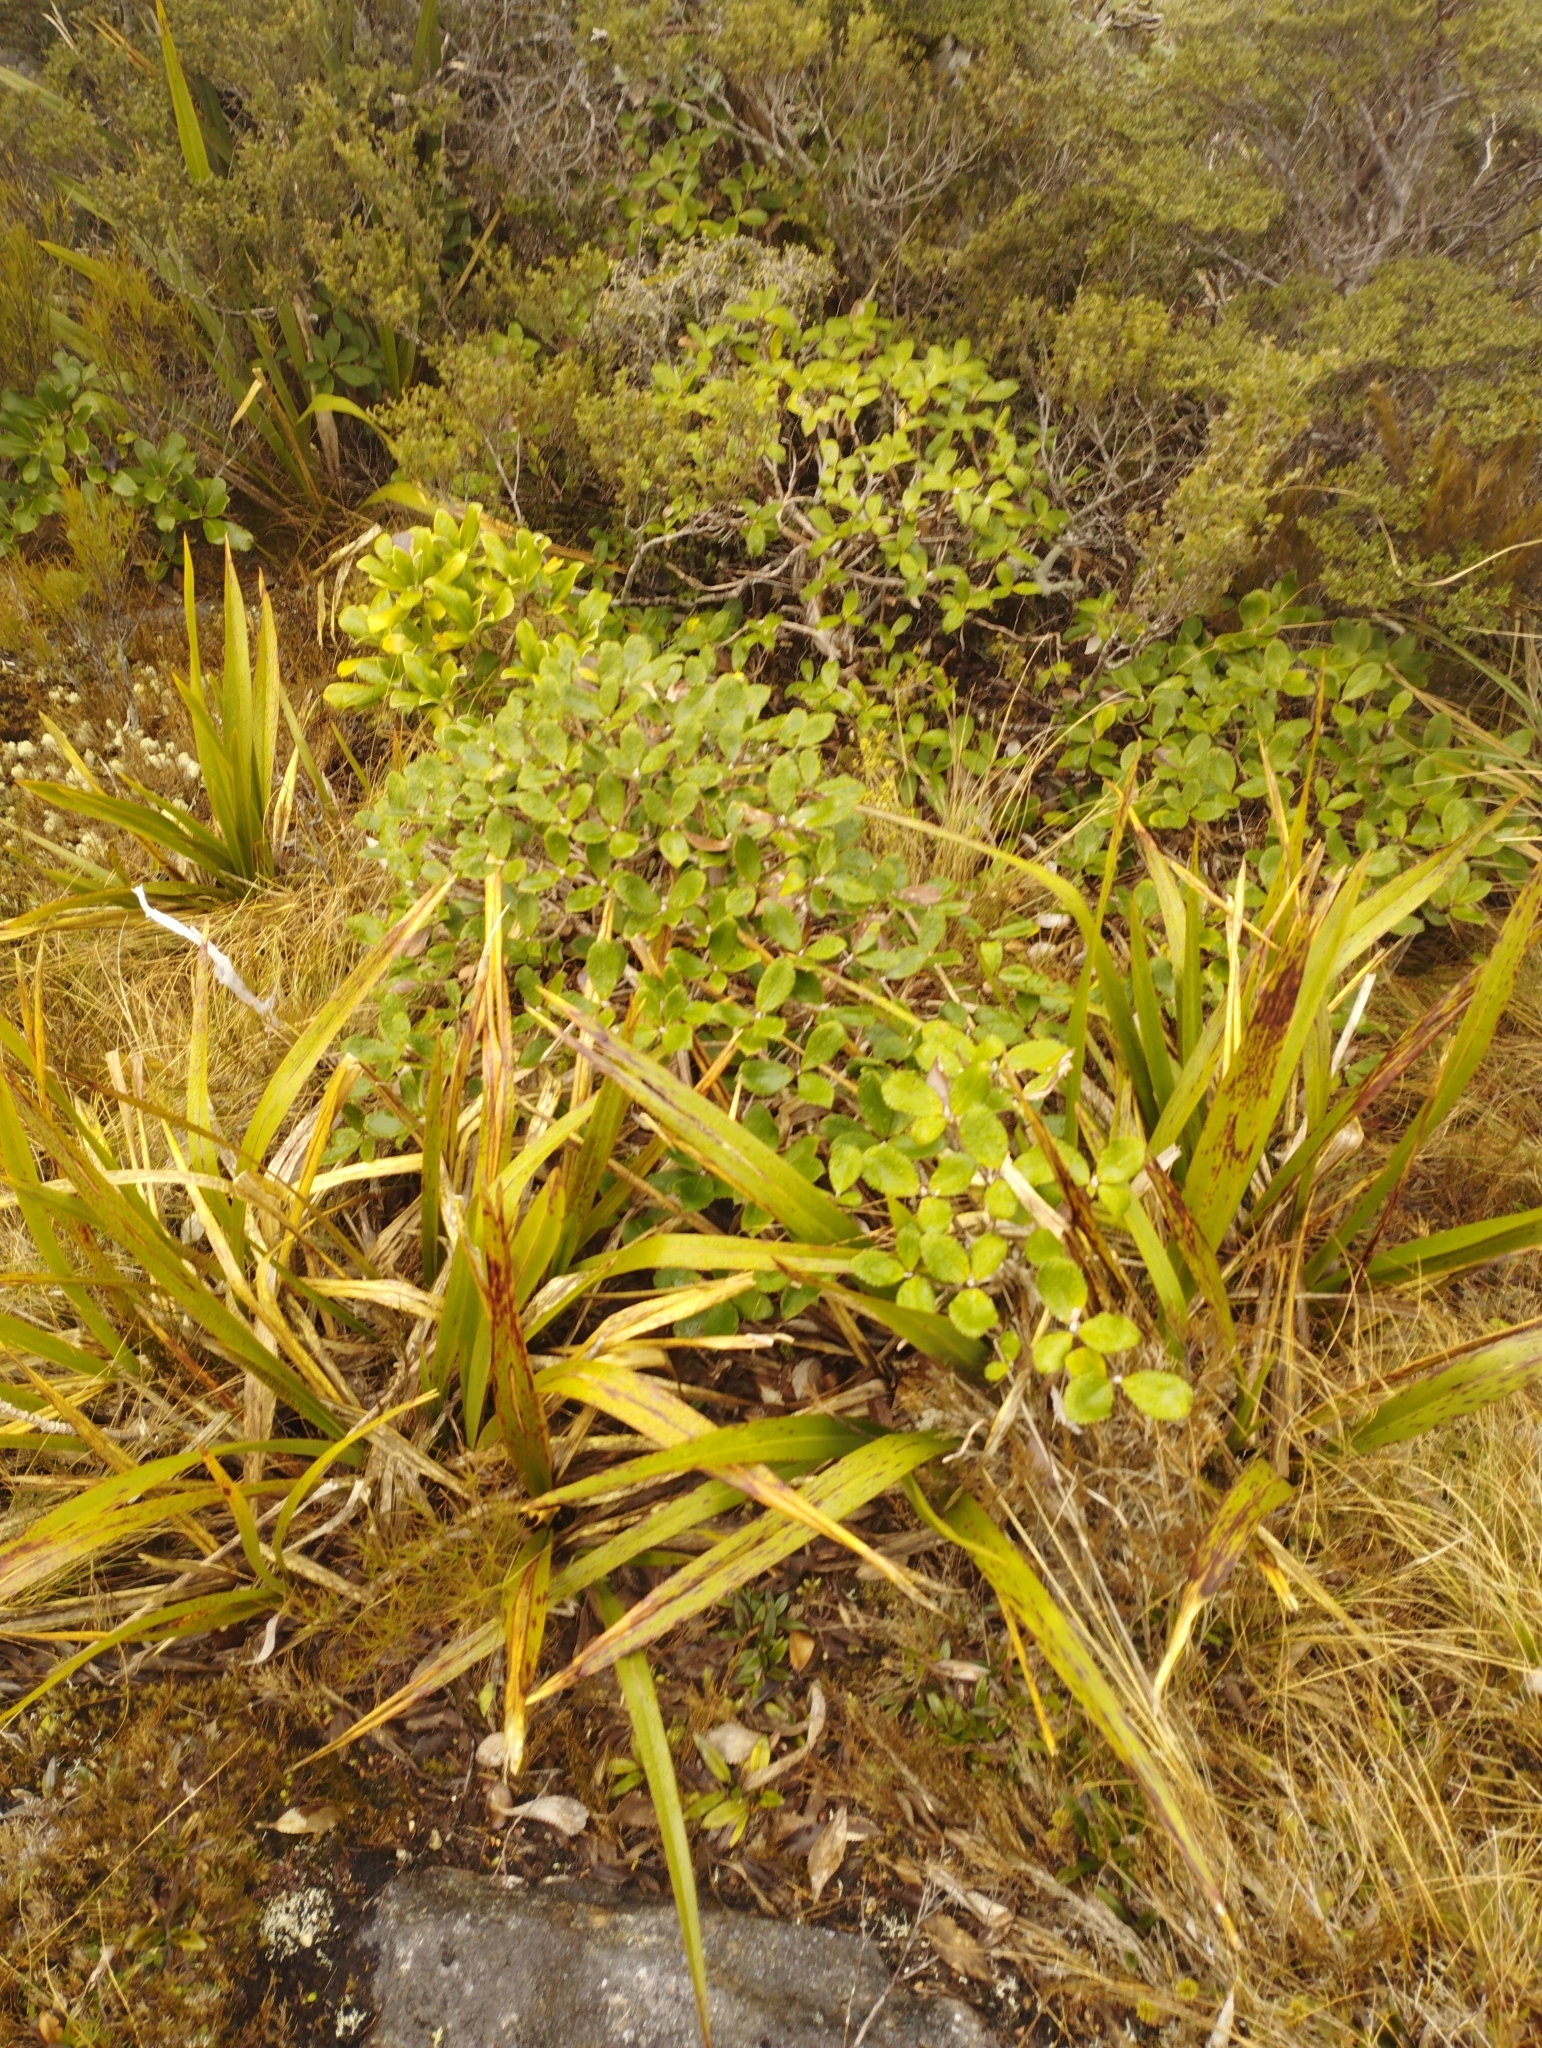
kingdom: Plantae
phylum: Tracheophyta
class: Magnoliopsida
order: Asterales
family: Asteraceae
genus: Macrolearia
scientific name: Macrolearia colensoi
